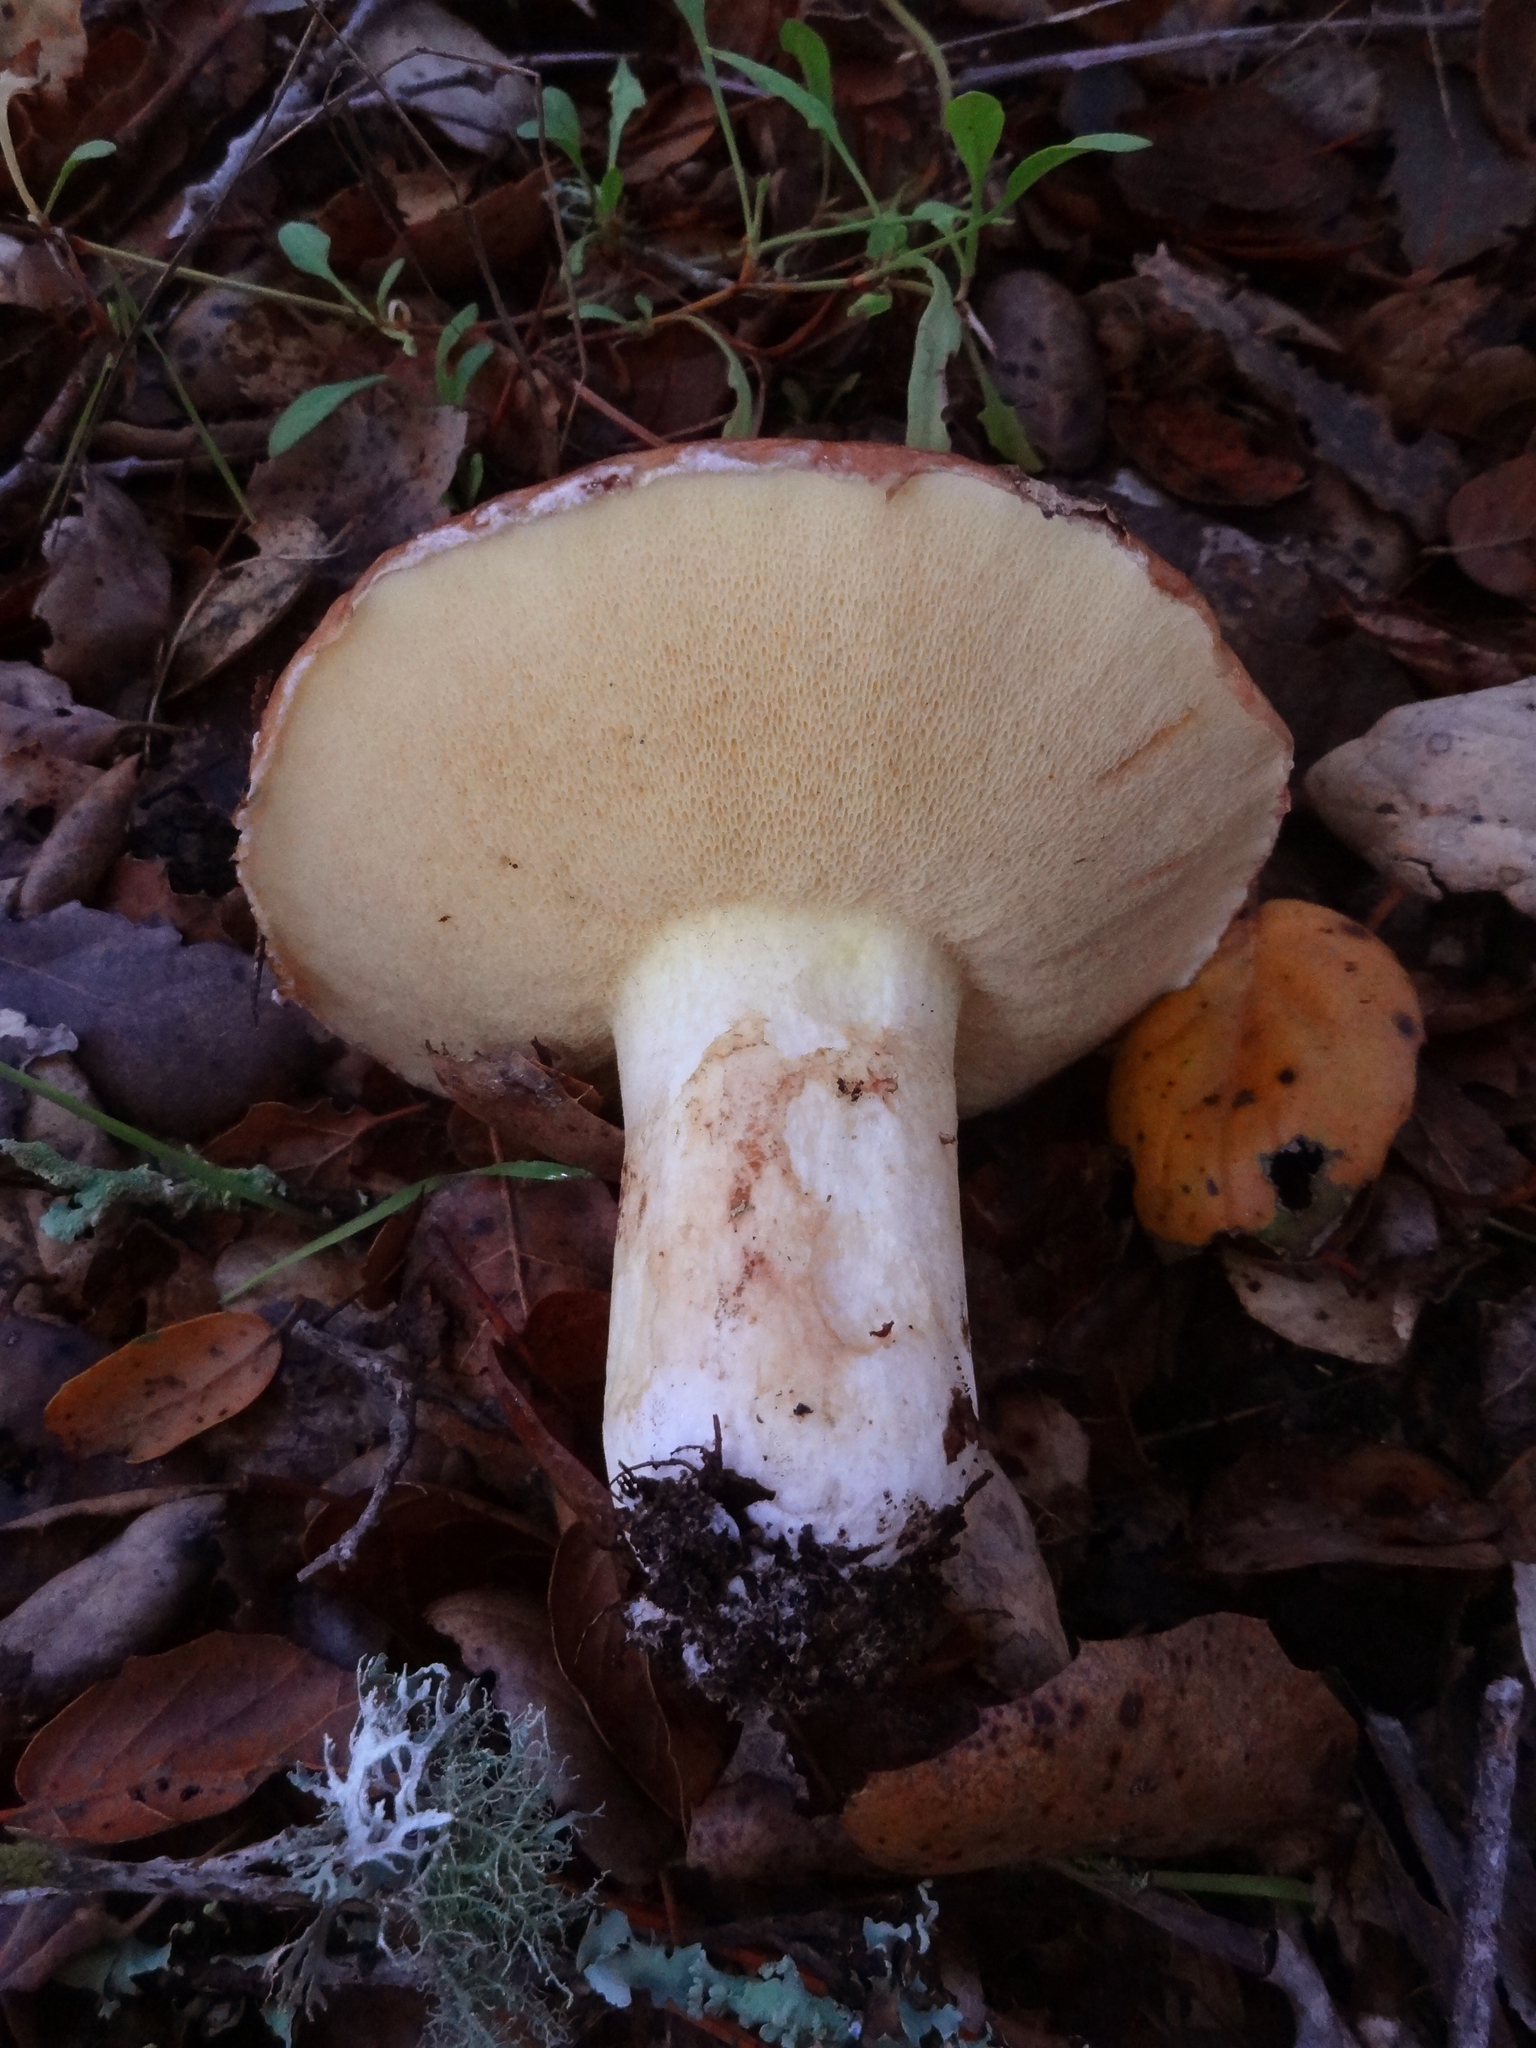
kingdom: Fungi
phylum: Basidiomycota
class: Agaricomycetes
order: Boletales
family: Suillaceae
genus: Suillus
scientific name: Suillus pseudobrevipes
